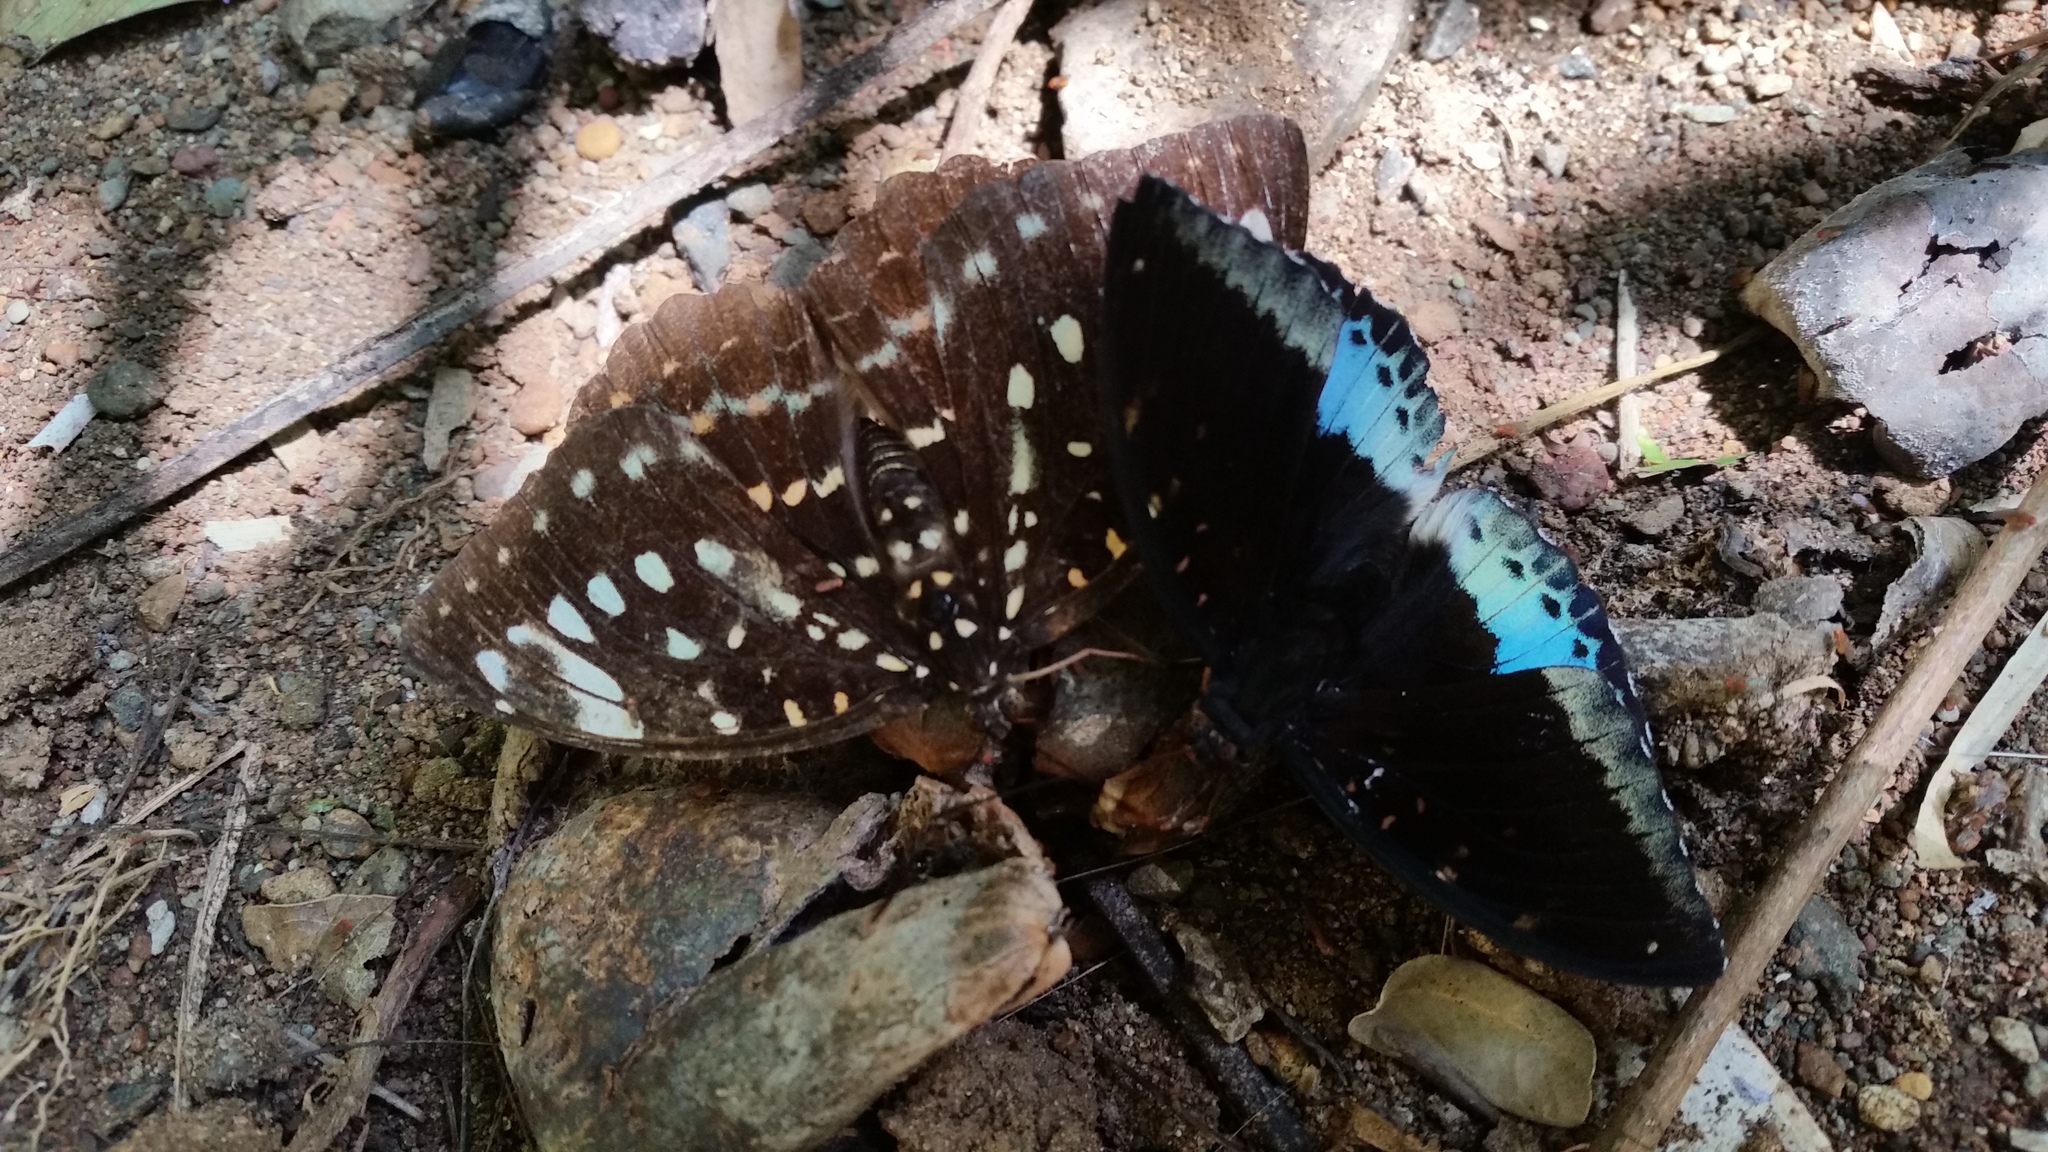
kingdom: Animalia
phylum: Arthropoda
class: Insecta
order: Lepidoptera
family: Nymphalidae
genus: Lexias
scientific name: Lexias dirtea
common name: Black-tipped archduke
